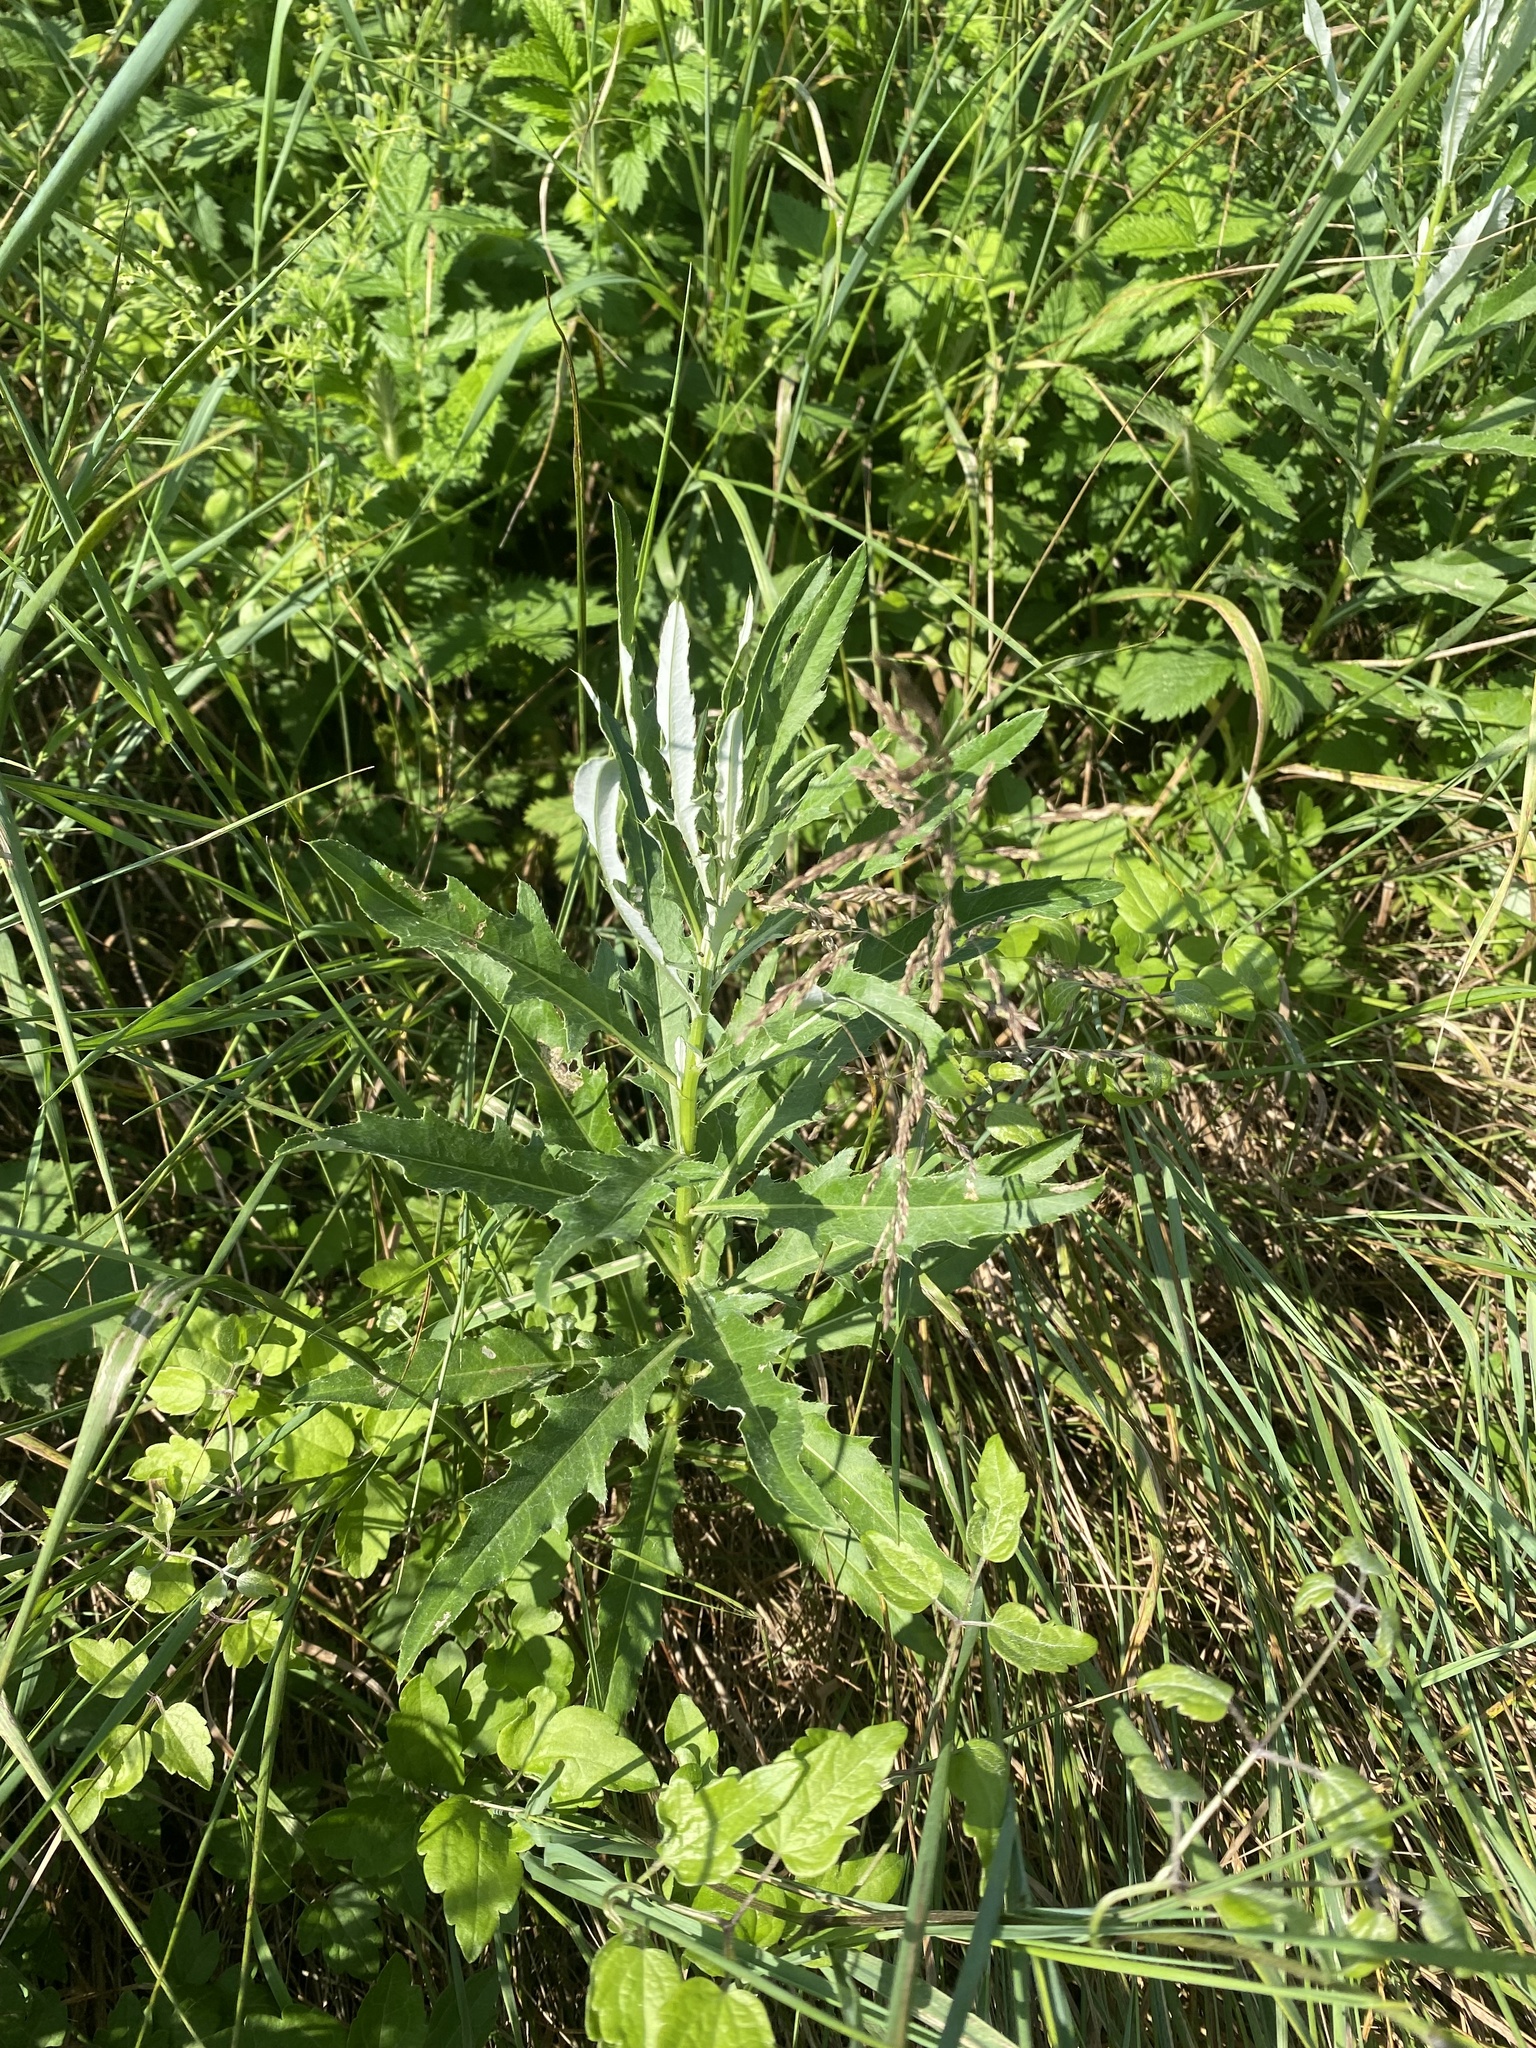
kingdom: Plantae
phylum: Tracheophyta
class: Magnoliopsida
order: Asterales
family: Asteraceae
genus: Cirsium
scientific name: Cirsium arvense
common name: Creeping thistle
